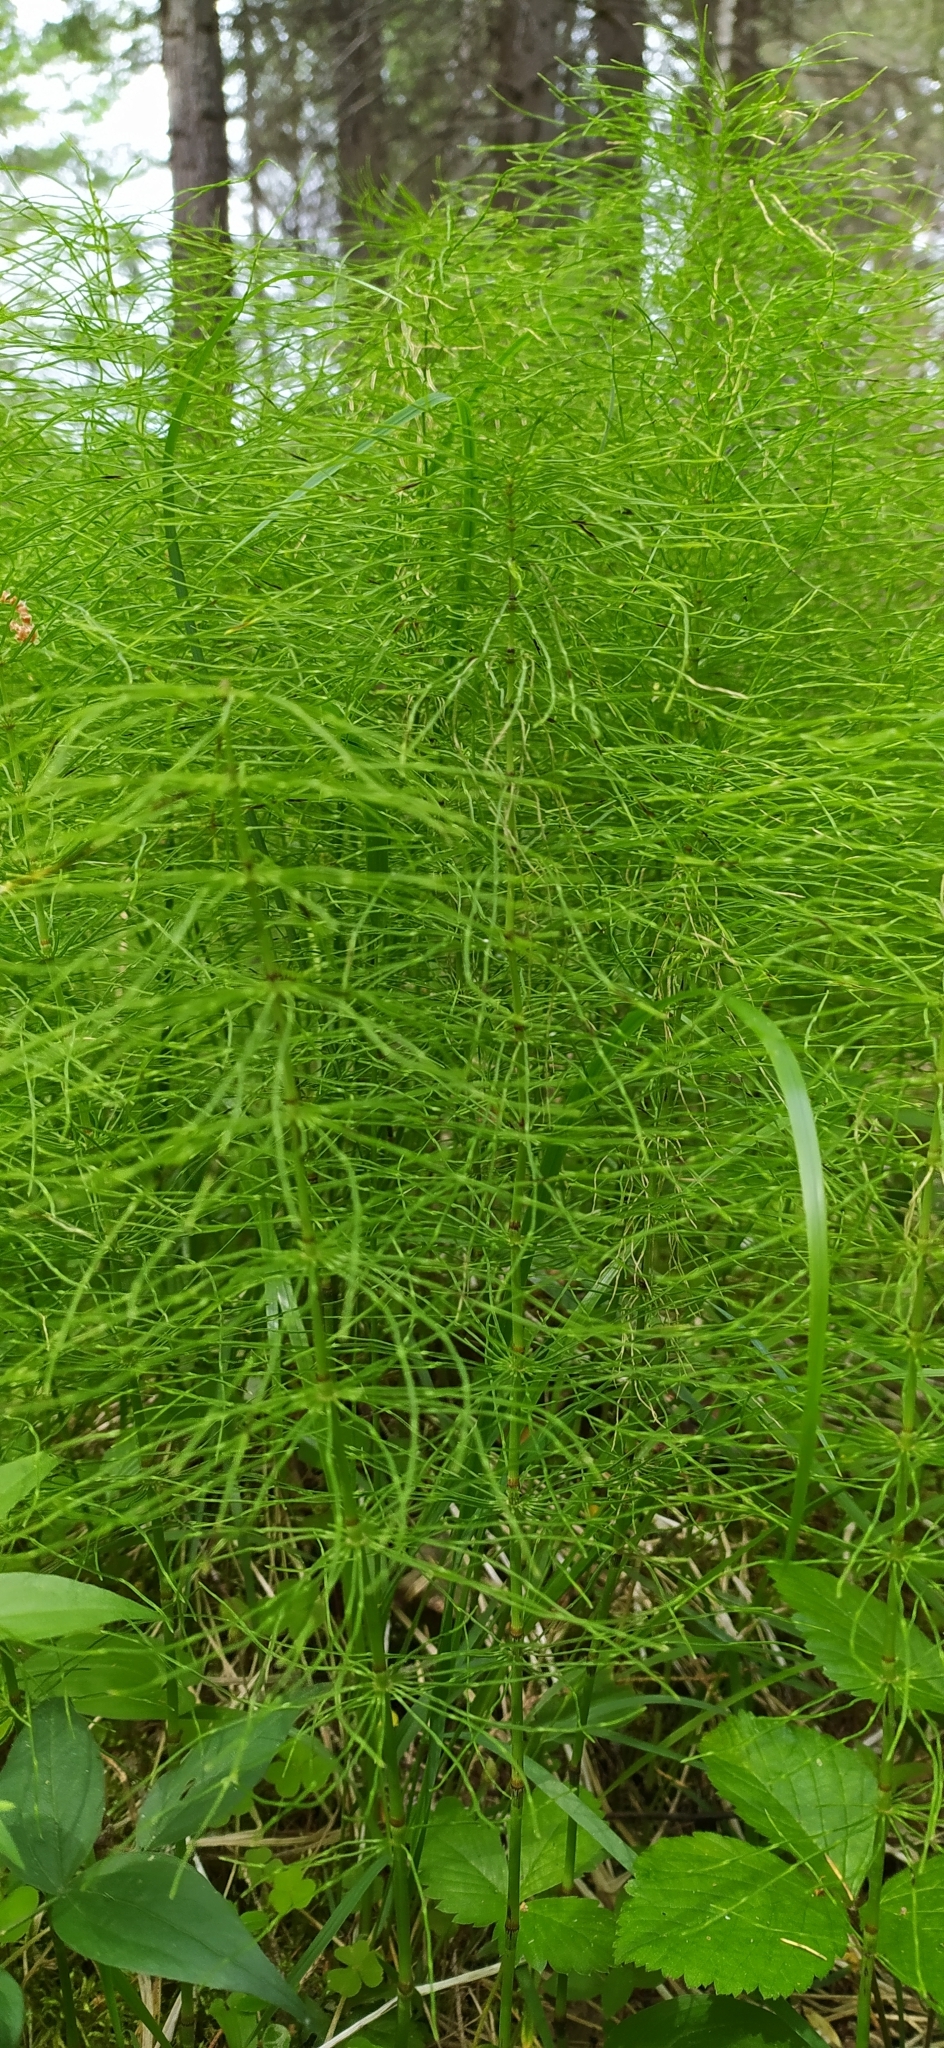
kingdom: Plantae
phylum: Tracheophyta
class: Polypodiopsida
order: Equisetales
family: Equisetaceae
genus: Equisetum
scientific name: Equisetum pratense
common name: Meadow horsetail
